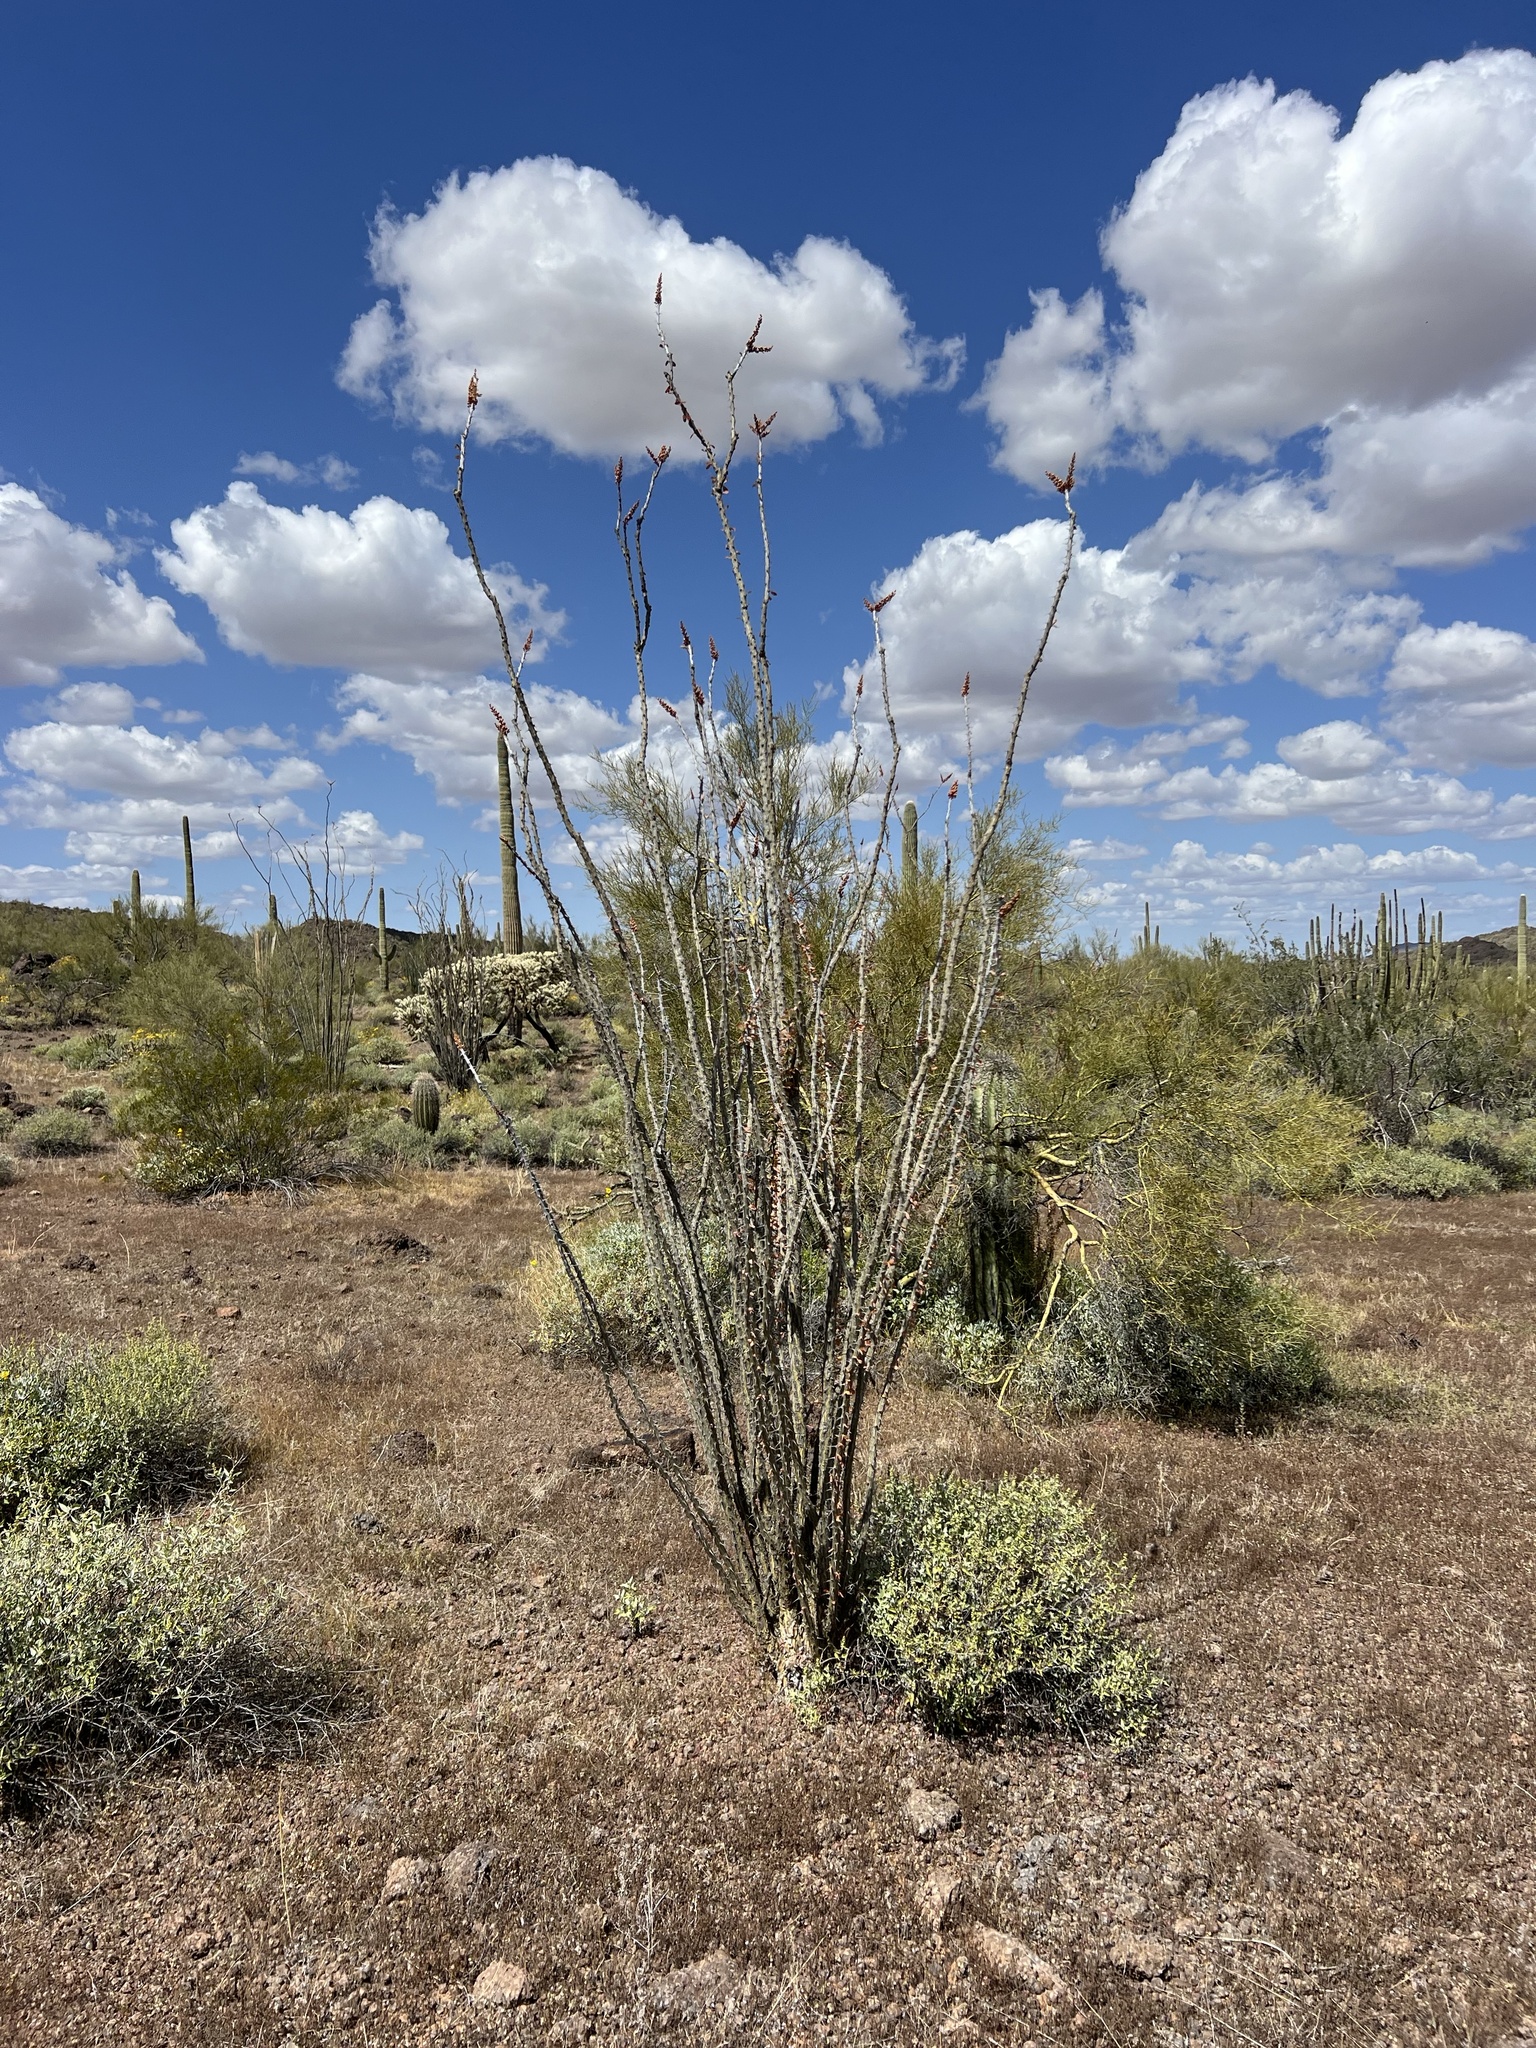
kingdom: Plantae
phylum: Tracheophyta
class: Magnoliopsida
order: Ericales
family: Fouquieriaceae
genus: Fouquieria
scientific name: Fouquieria splendens
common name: Vine-cactus
